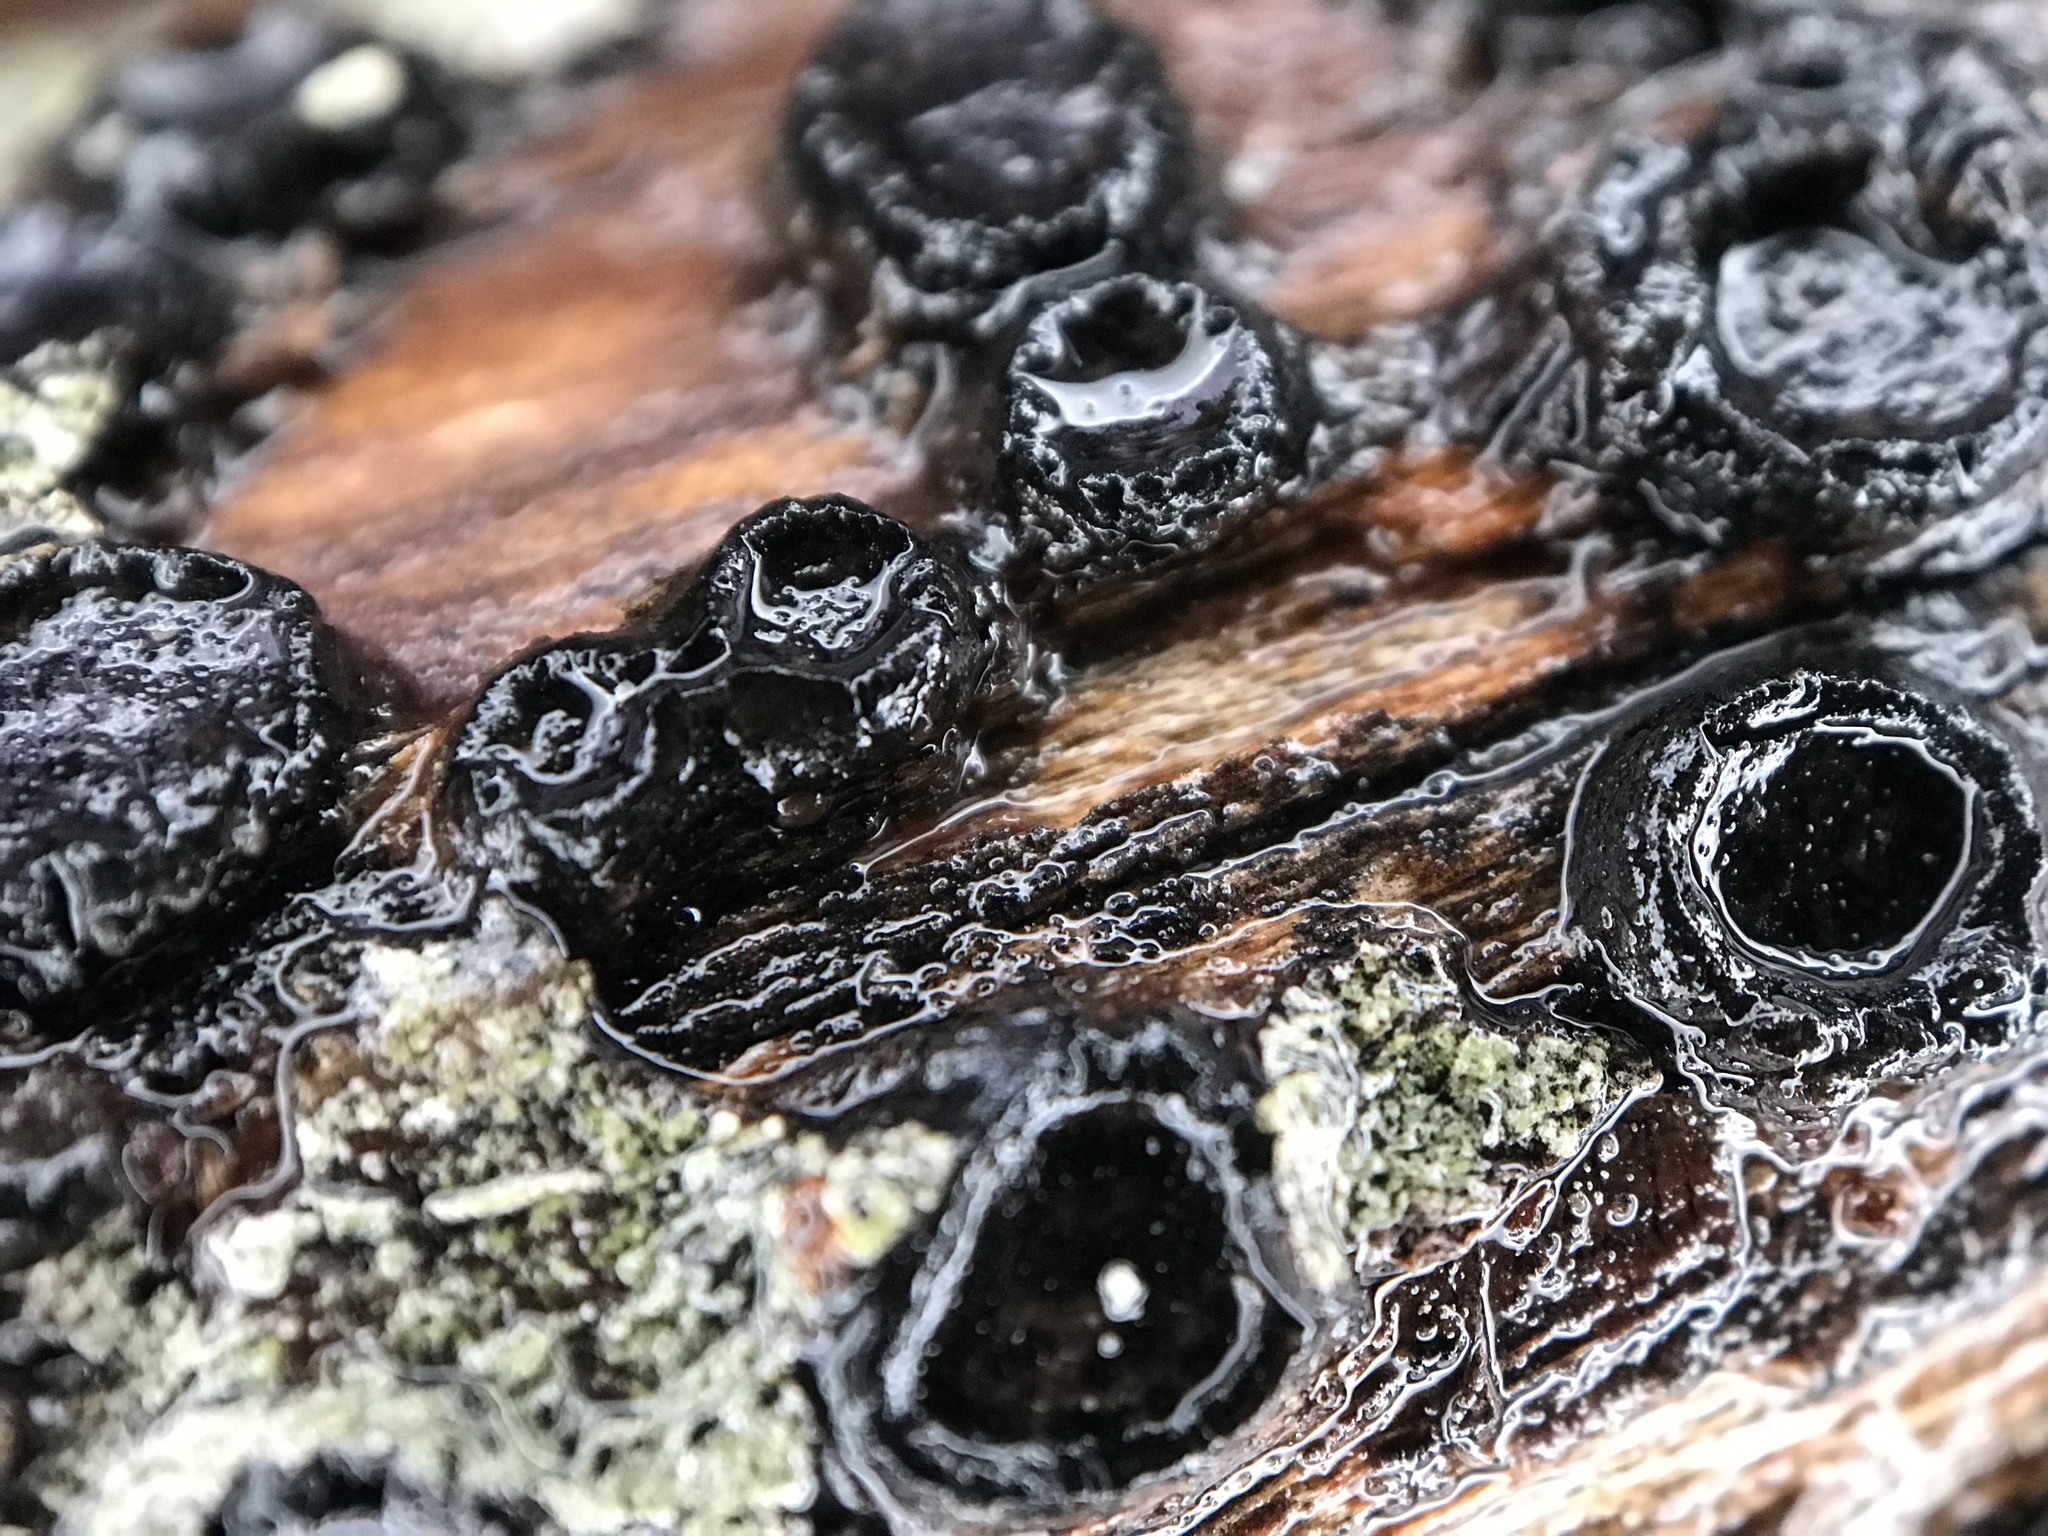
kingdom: Fungi
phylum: Ascomycota
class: Sordariomycetes
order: Xylariales
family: Graphostromataceae
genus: Biscogniauxia
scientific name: Biscogniauxia marginata
